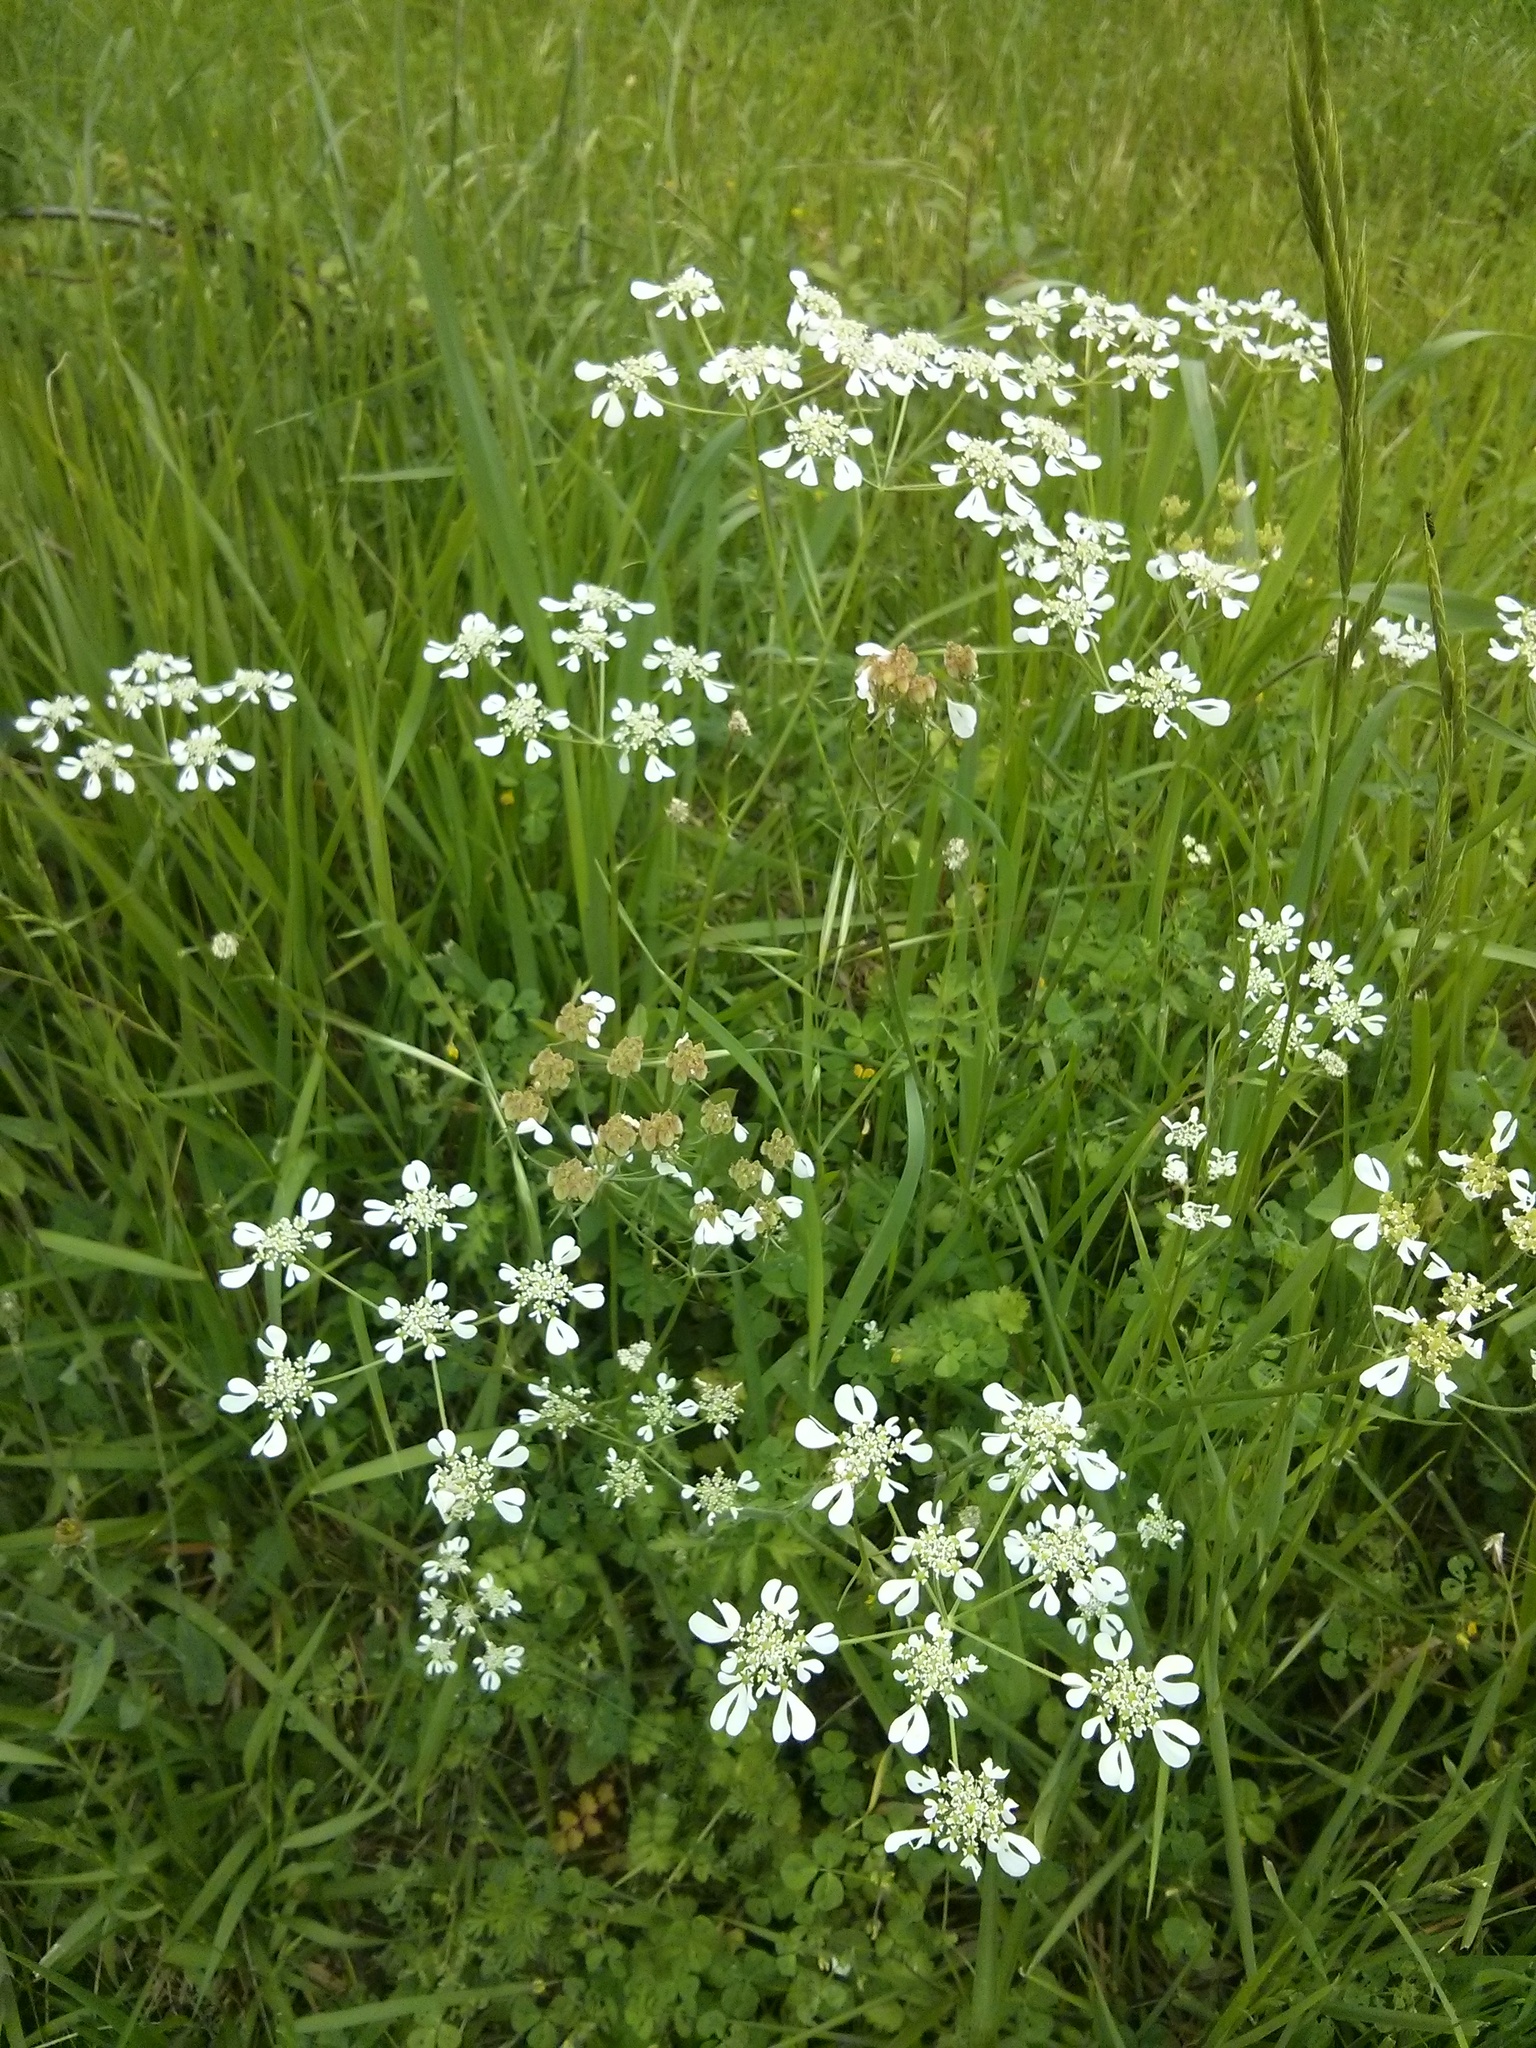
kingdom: Plantae
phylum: Tracheophyta
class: Magnoliopsida
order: Apiales
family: Apiaceae
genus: Tordylium
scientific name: Tordylium apulum
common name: Mediterranean hartwort
